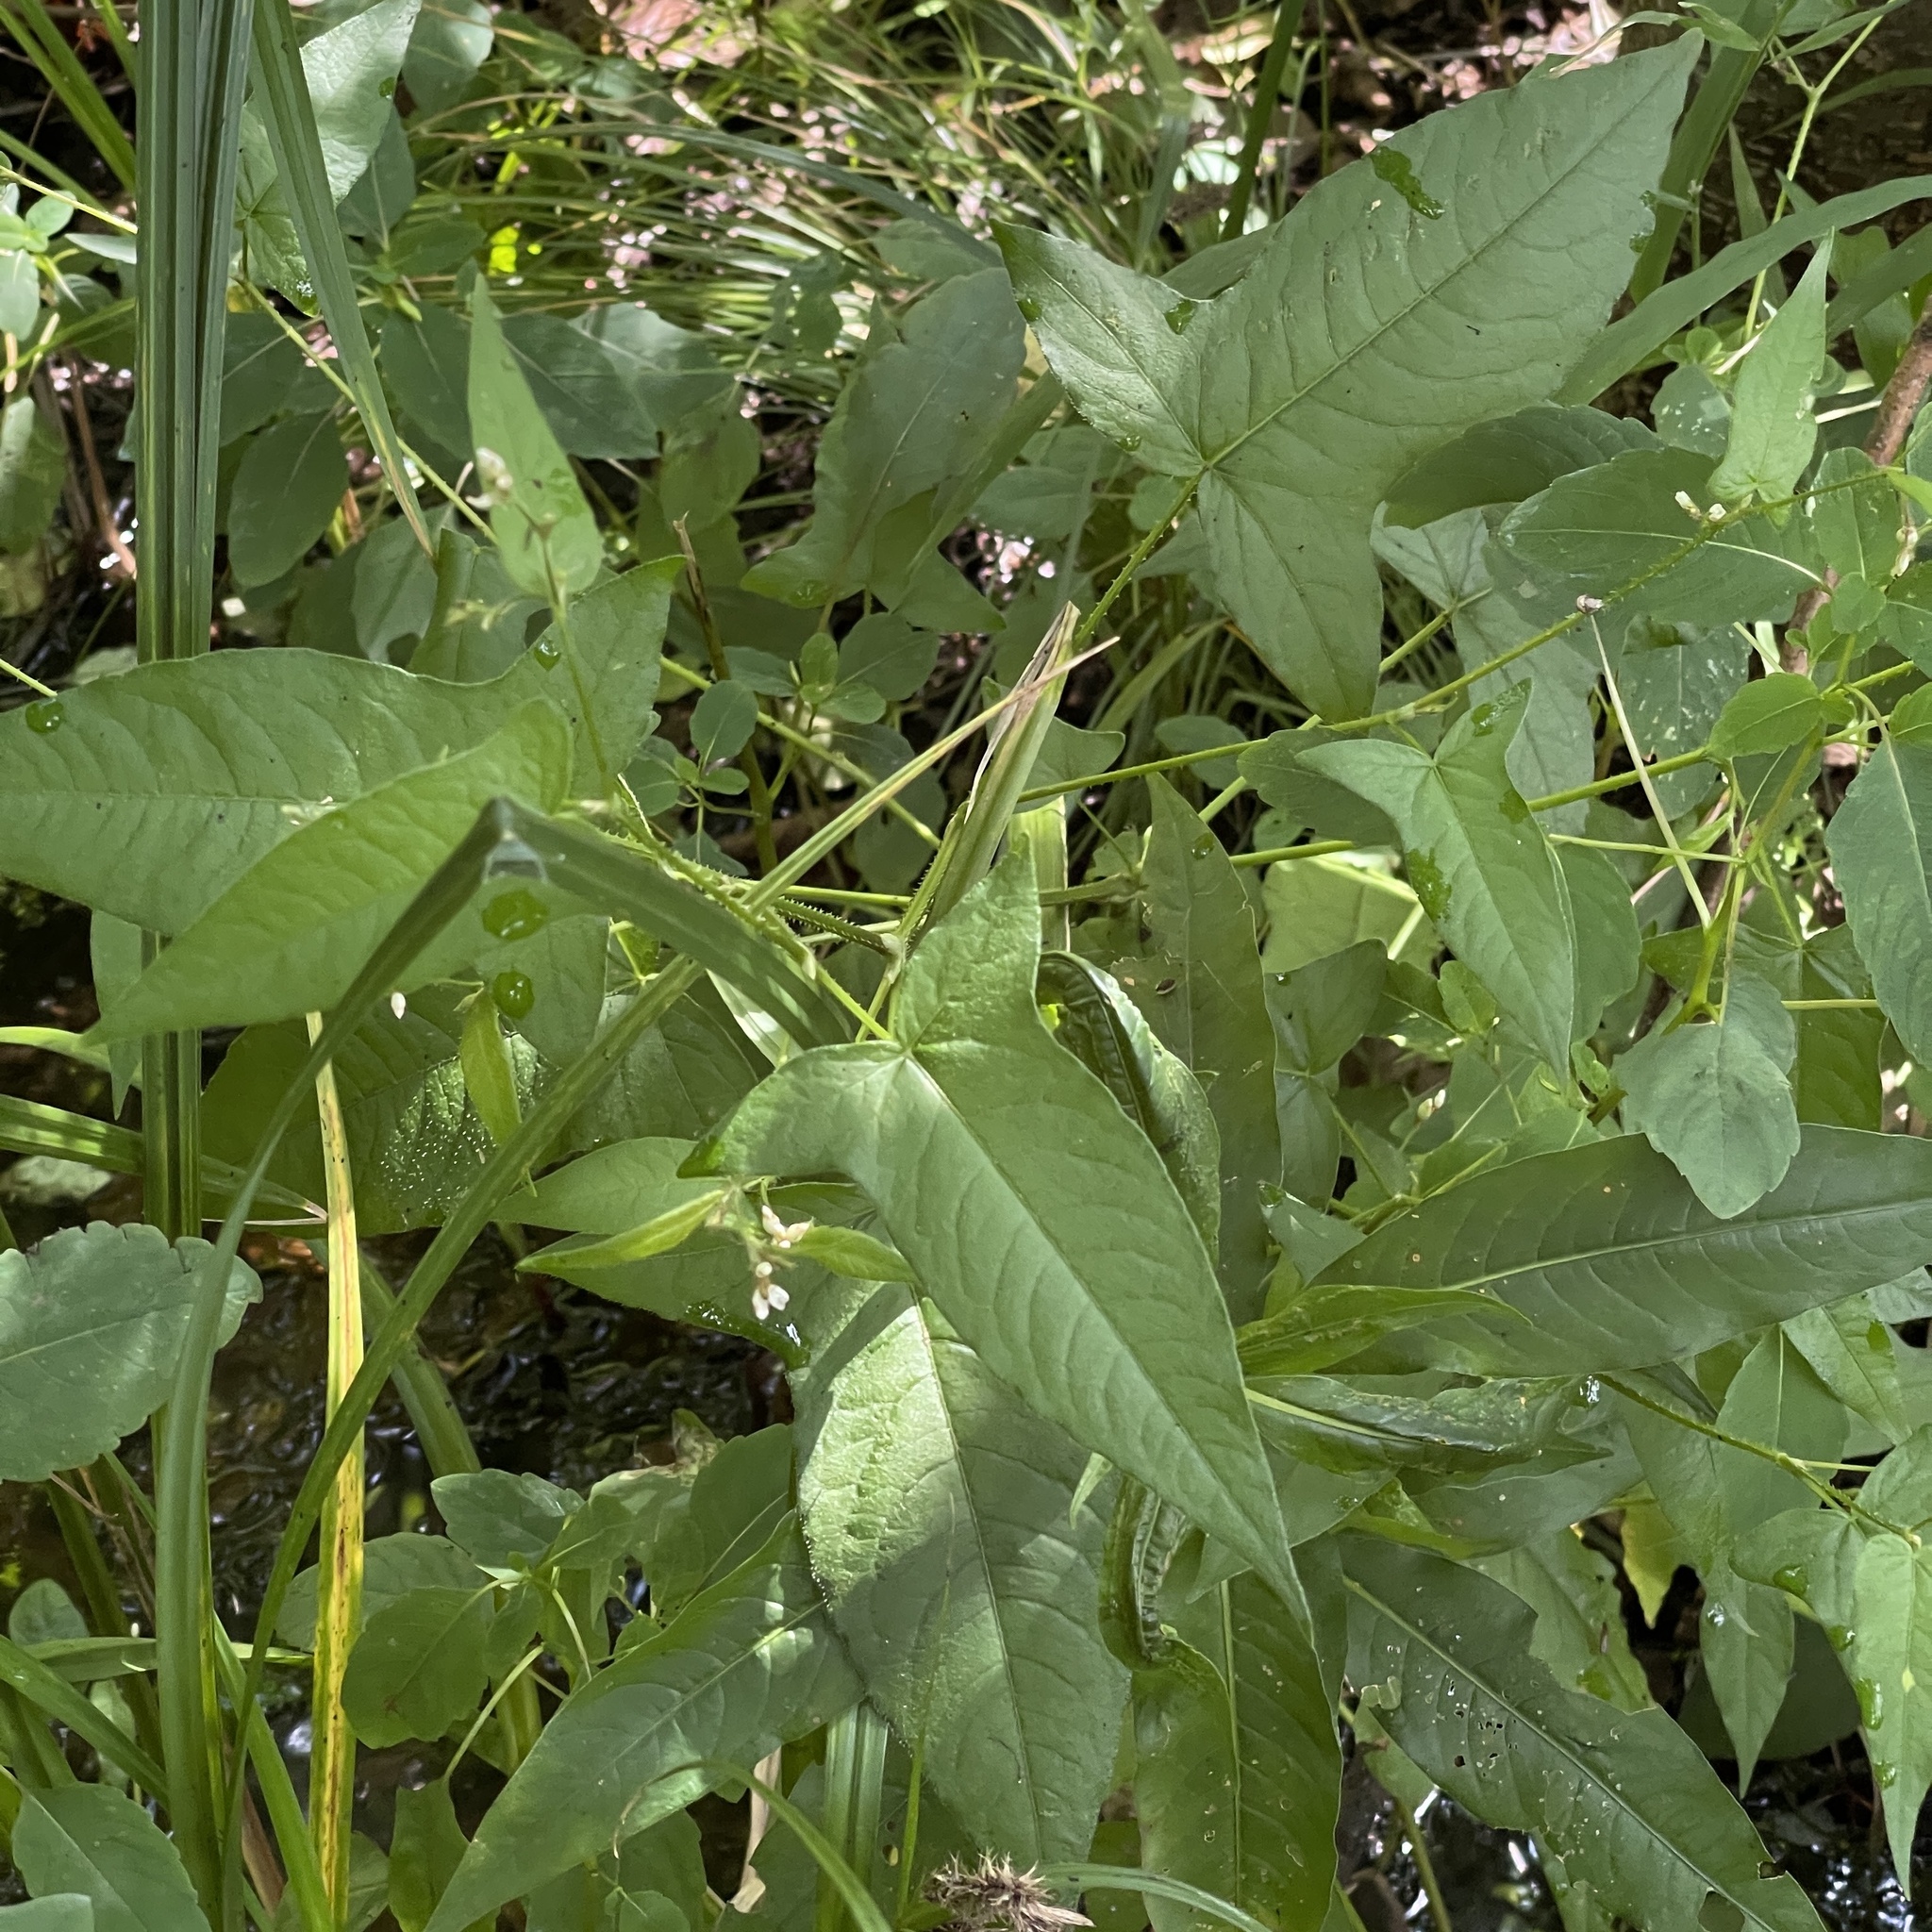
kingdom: Plantae
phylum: Tracheophyta
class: Magnoliopsida
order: Caryophyllales
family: Polygonaceae
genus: Persicaria
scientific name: Persicaria arifolia
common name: Halberd-leaved tear-thumb
